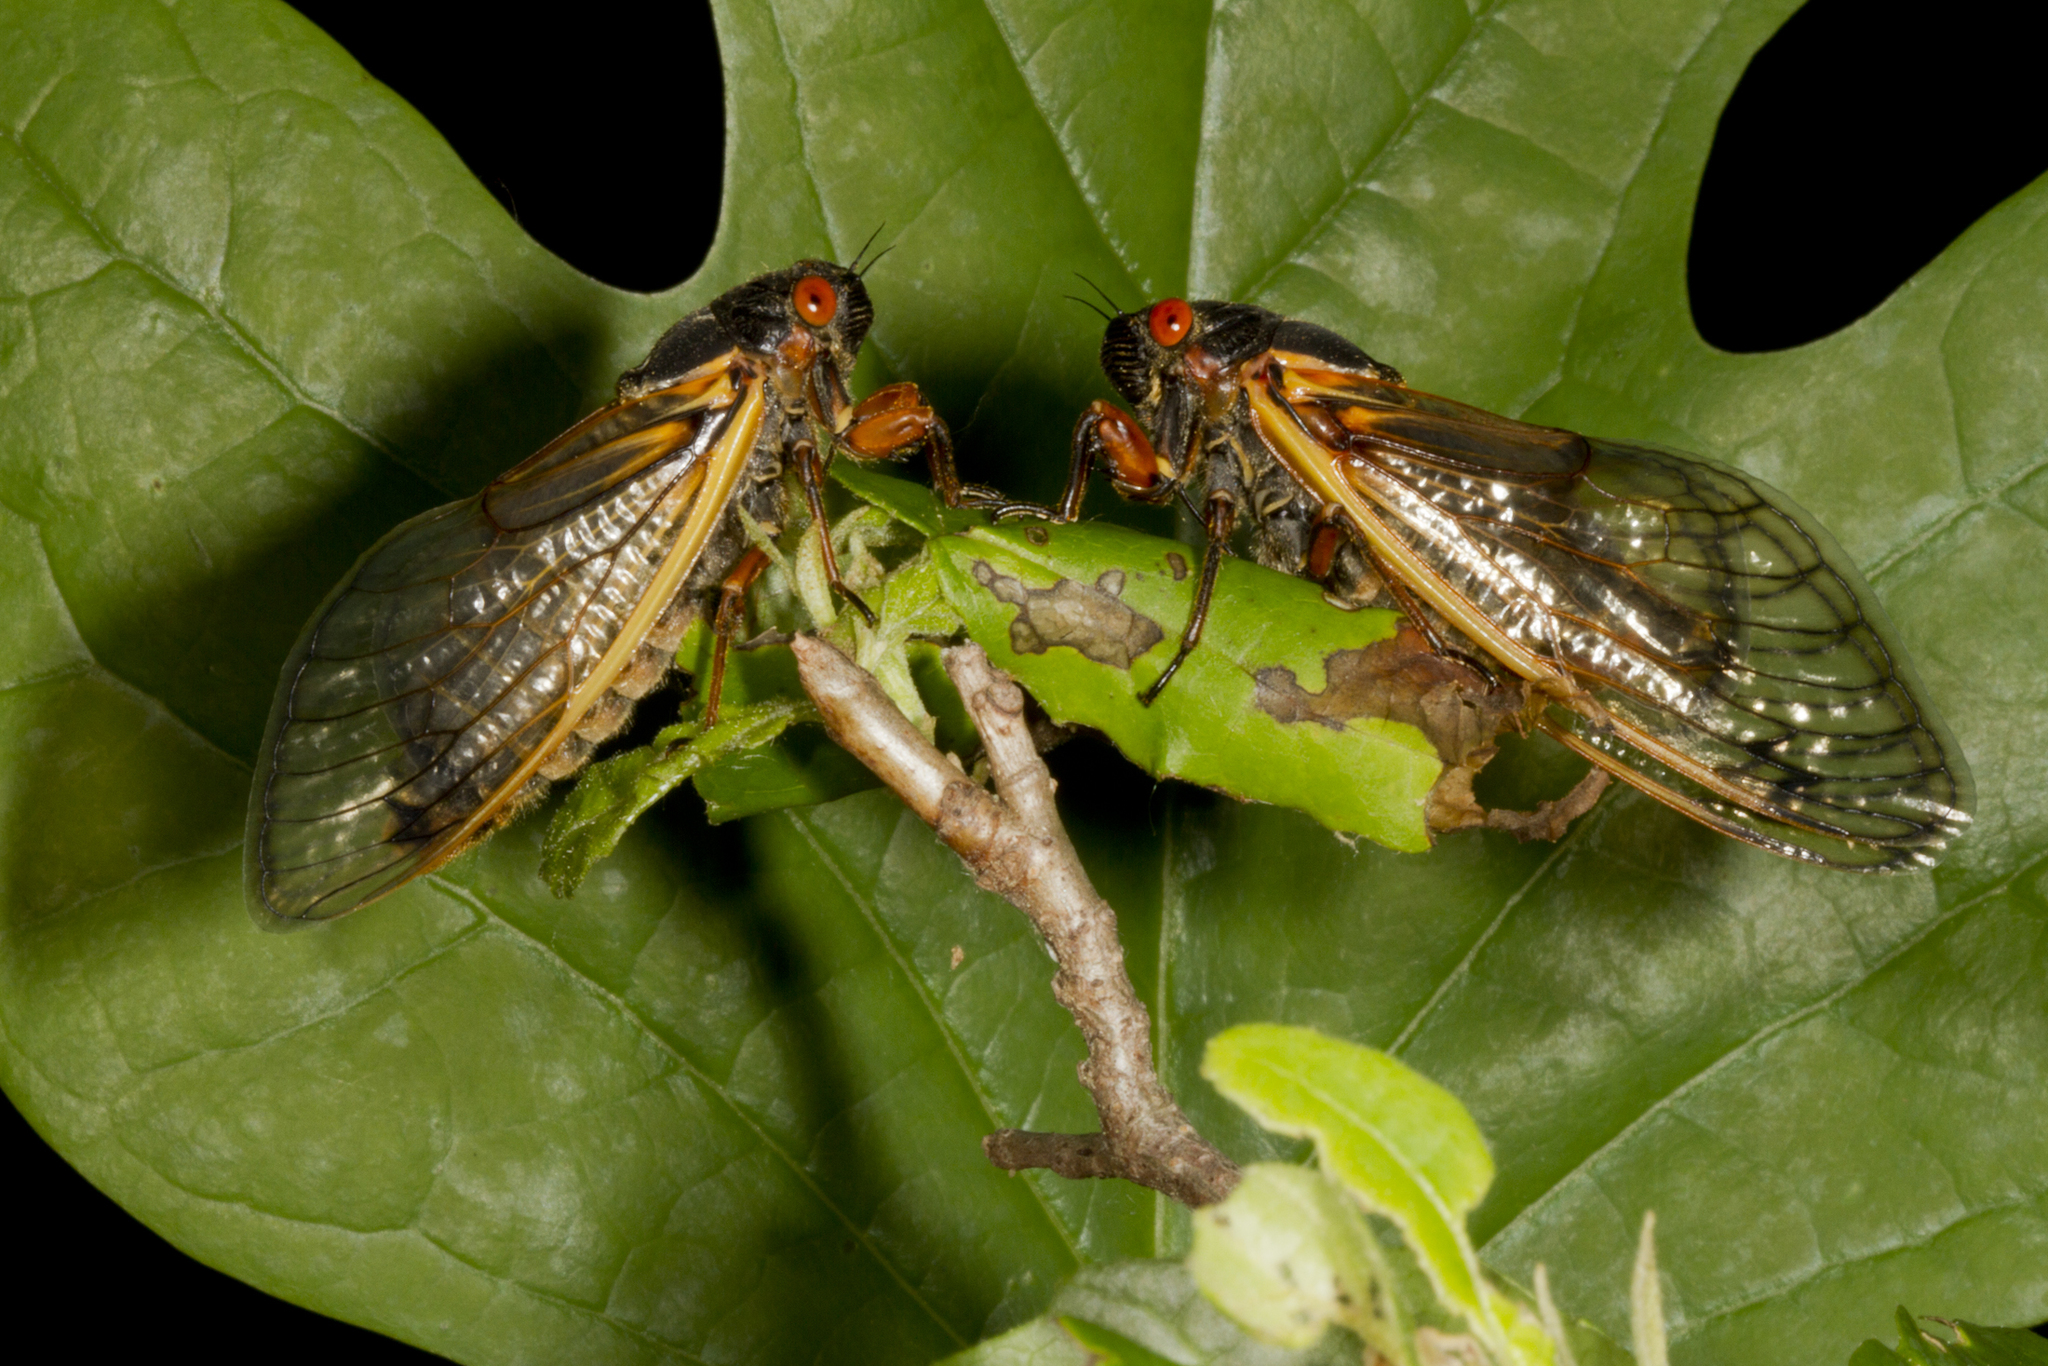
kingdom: Animalia
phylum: Arthropoda
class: Insecta
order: Hemiptera
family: Cicadidae
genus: Magicicada
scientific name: Magicicada septendecim
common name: Periodical cicada
